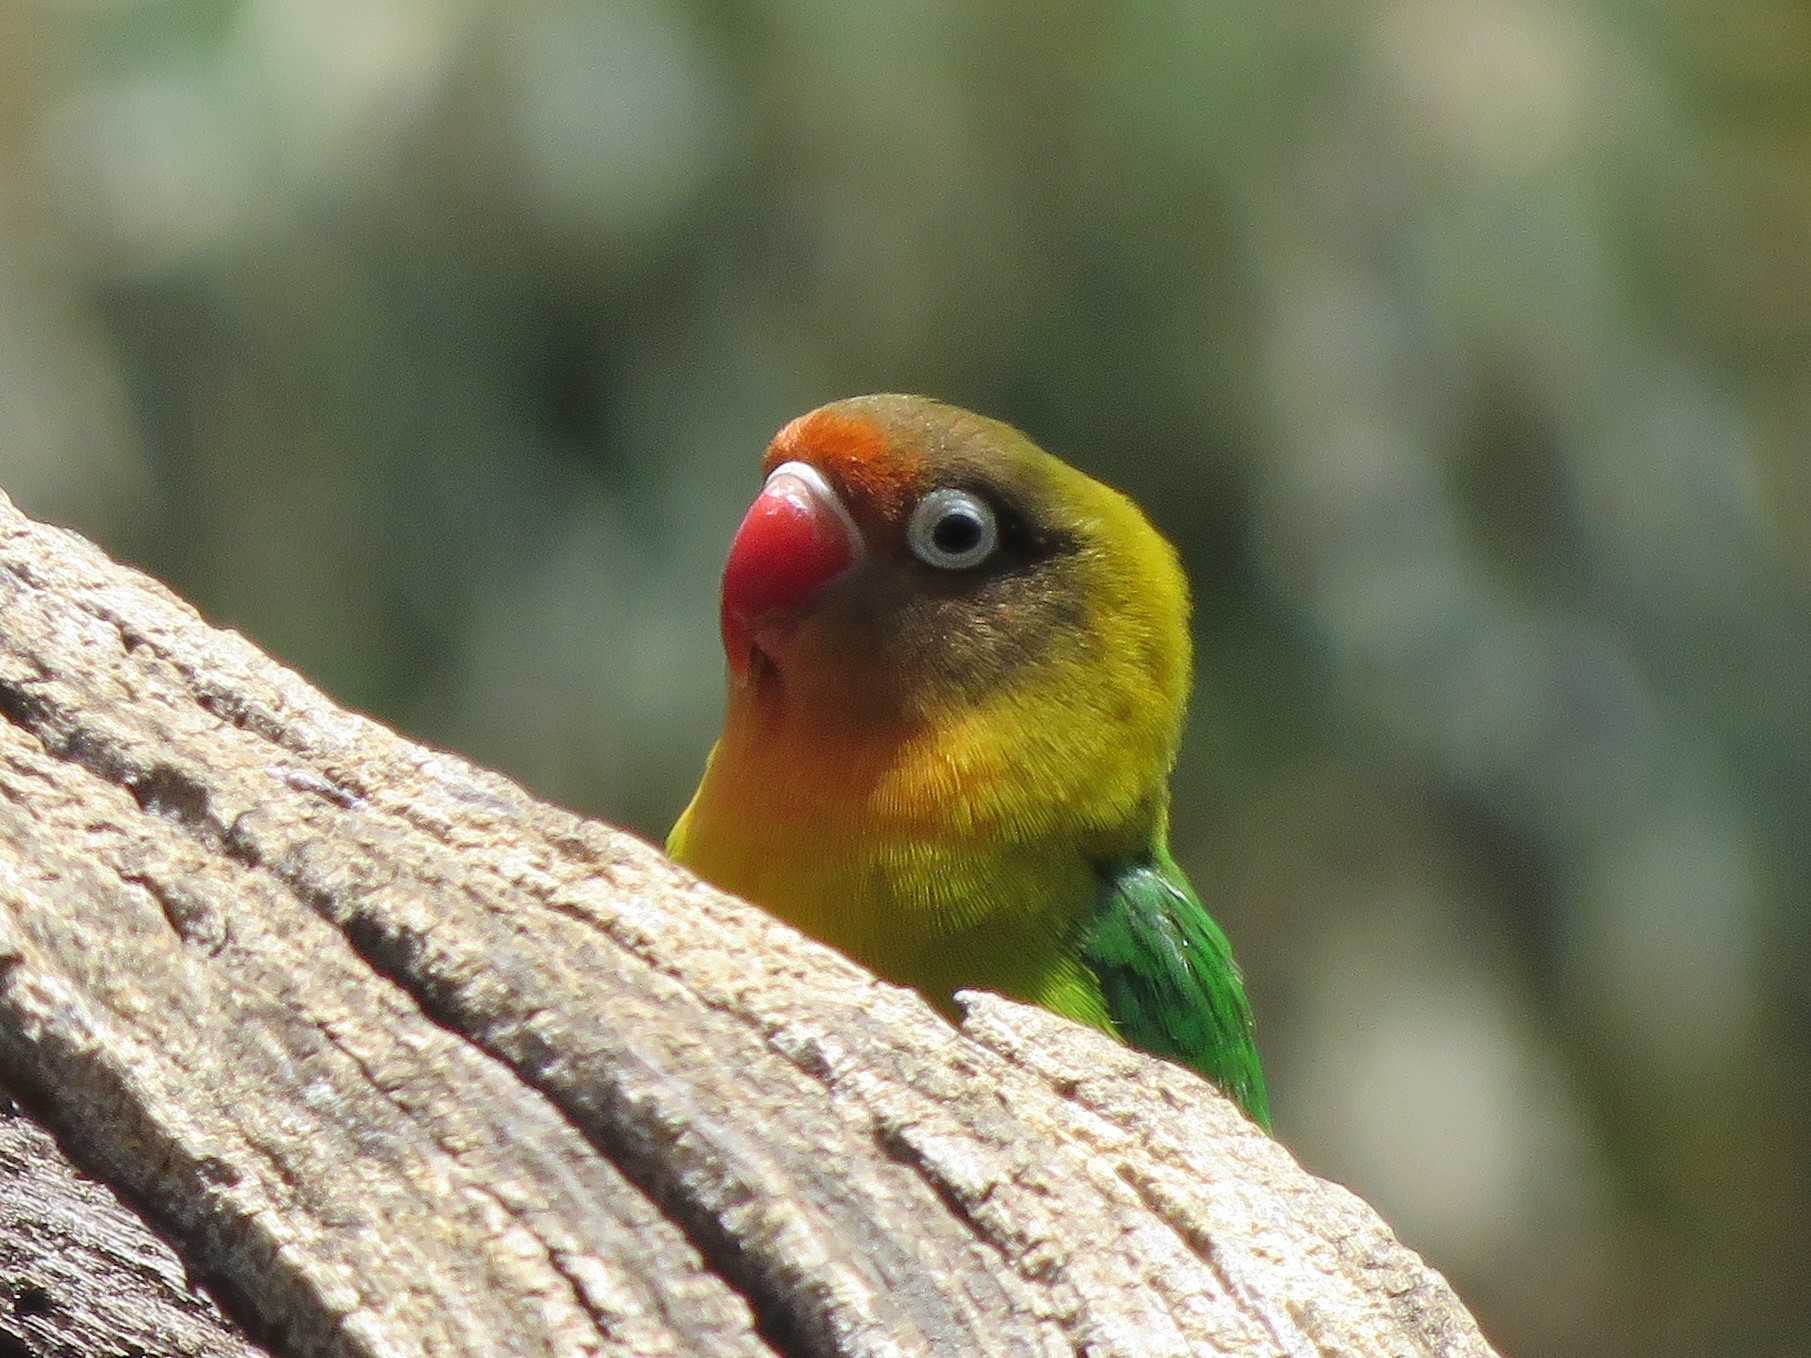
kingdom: Animalia
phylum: Chordata
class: Aves
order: Psittaciformes
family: Psittacidae
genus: Agapornis
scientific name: Agapornis
